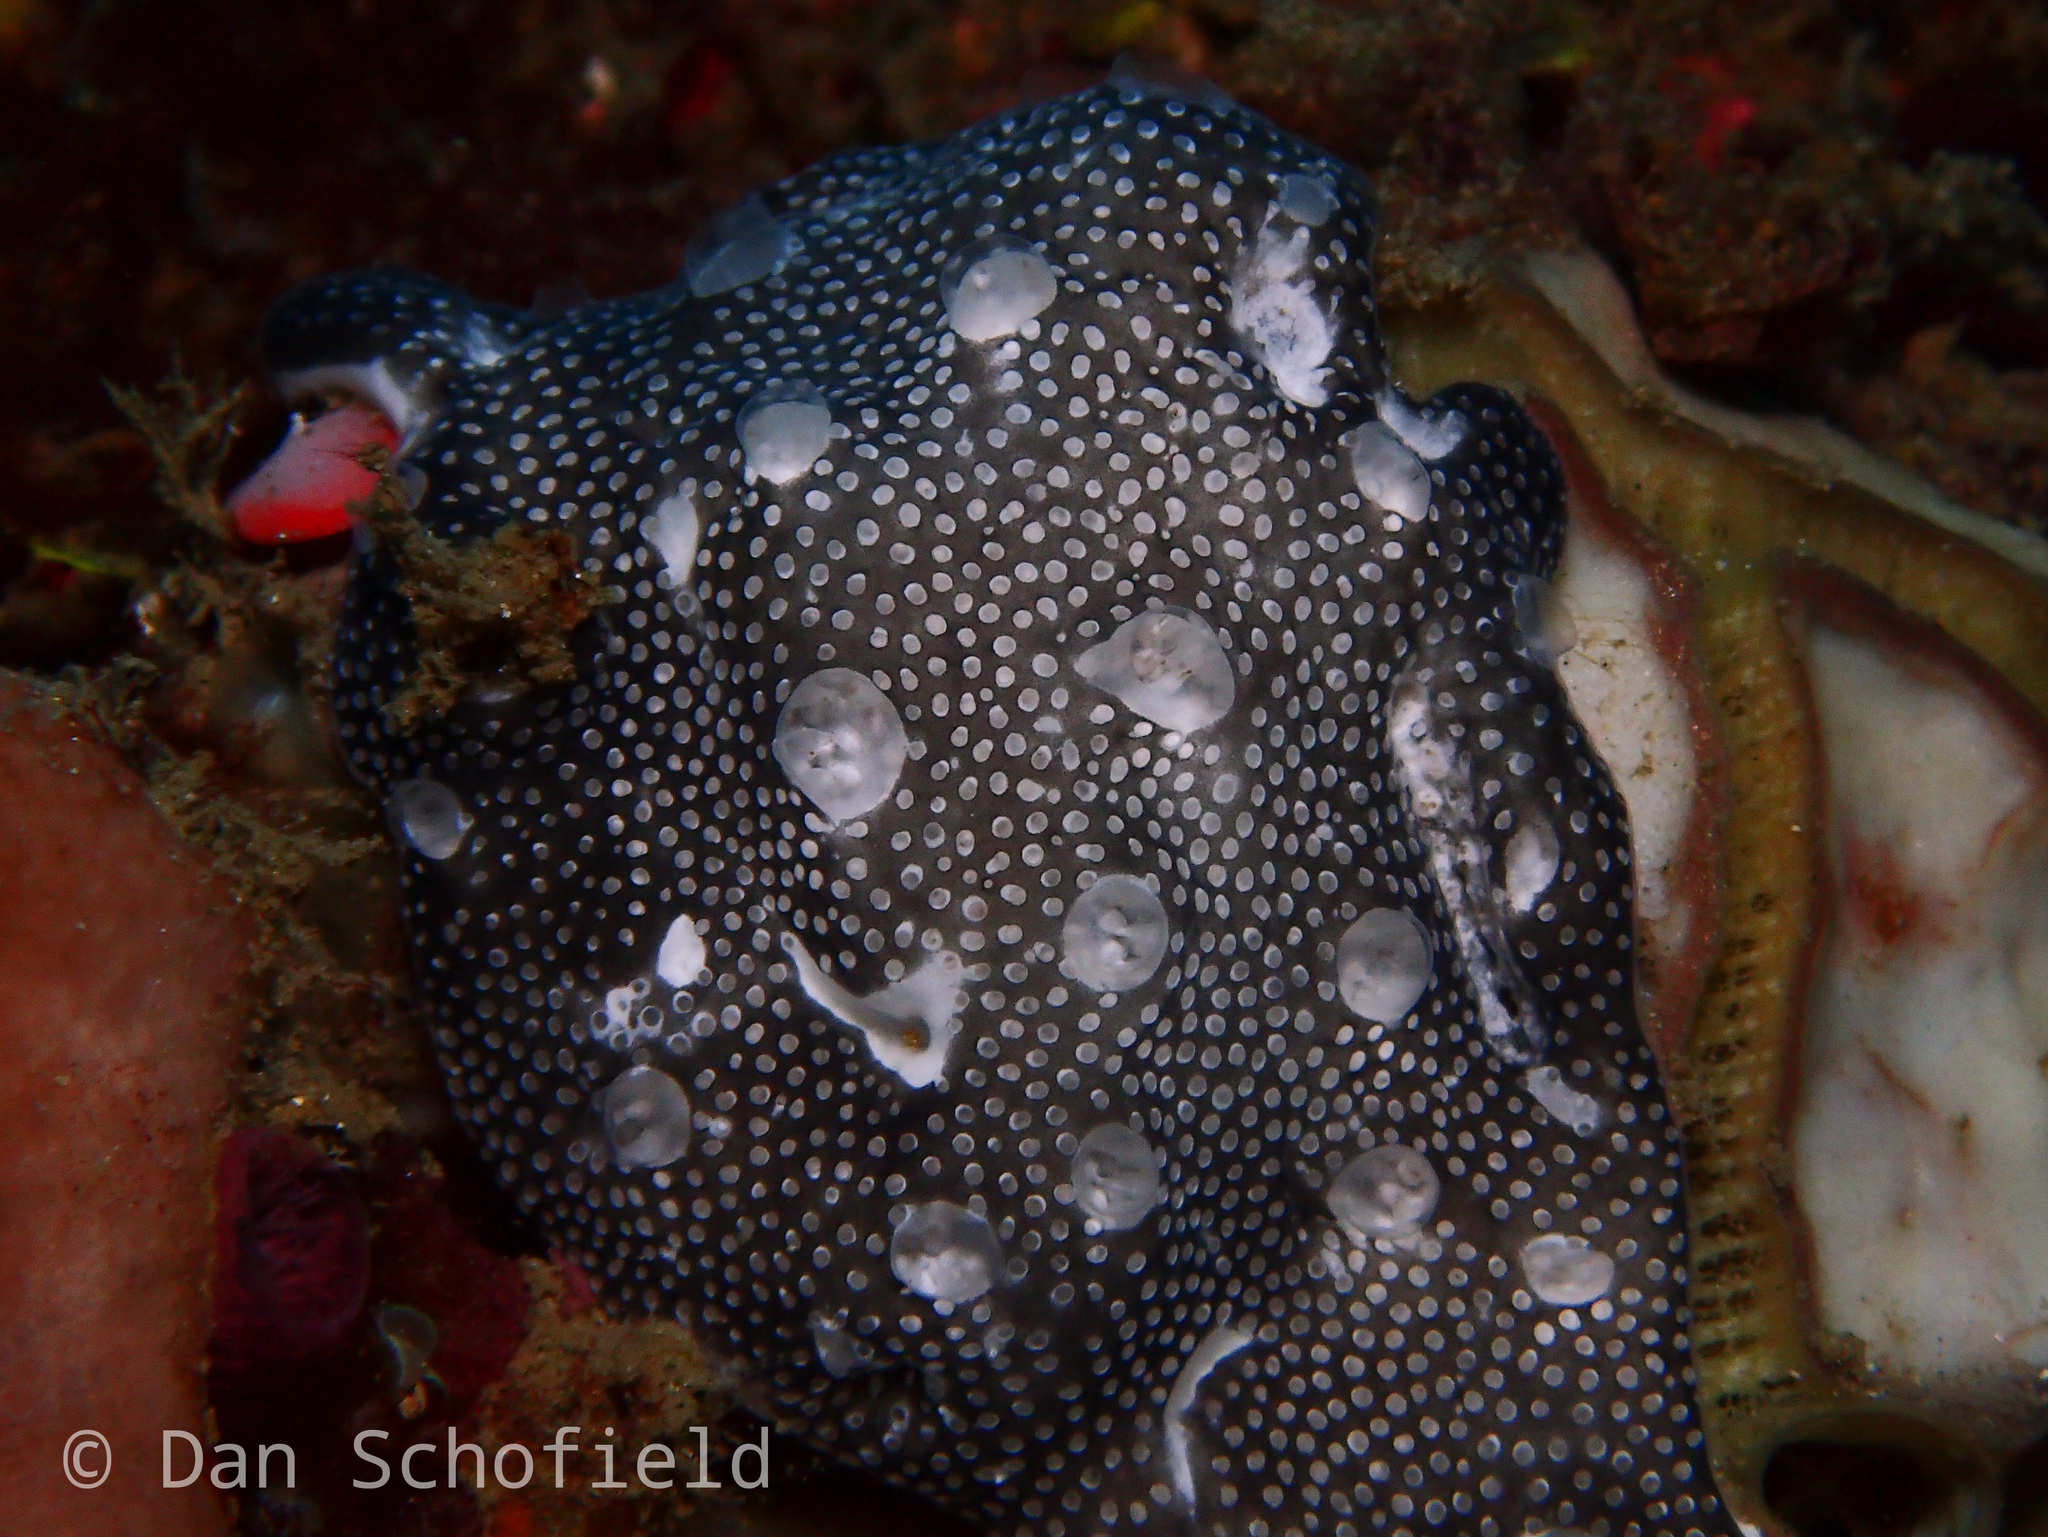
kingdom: Animalia
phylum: Chordata
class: Ascidiacea
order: Aplousobranchia
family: Didemnidae
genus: Leptoclinides
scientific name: Leptoclinides reticulatus
